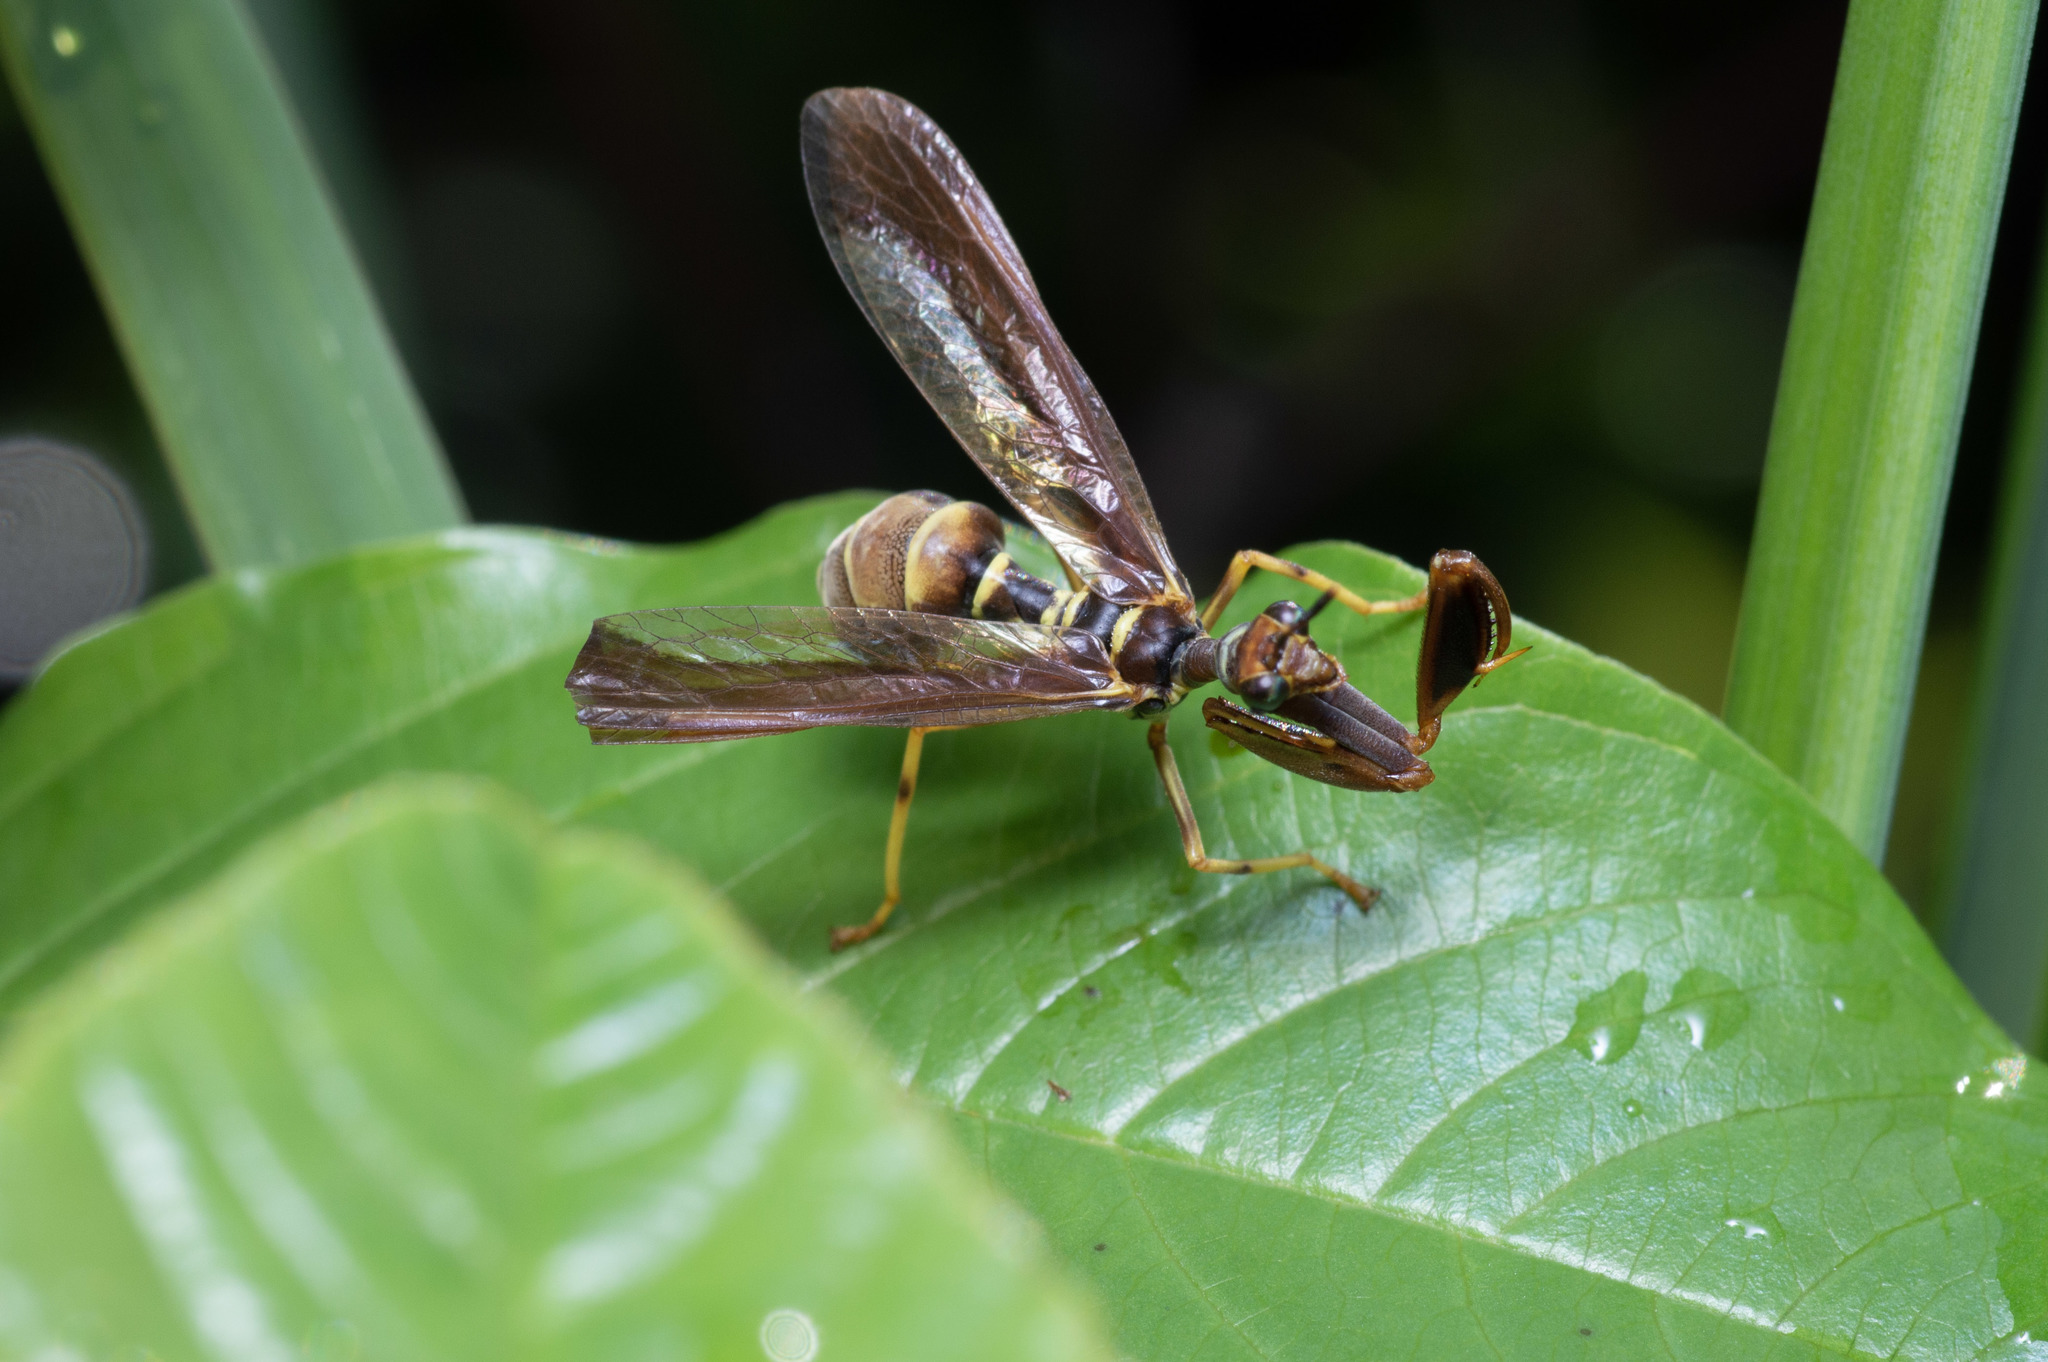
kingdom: Animalia
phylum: Arthropoda
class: Insecta
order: Neuroptera
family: Mantispidae
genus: Climaciella
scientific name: Climaciella brunnea
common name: Brown wasp mantidfly
